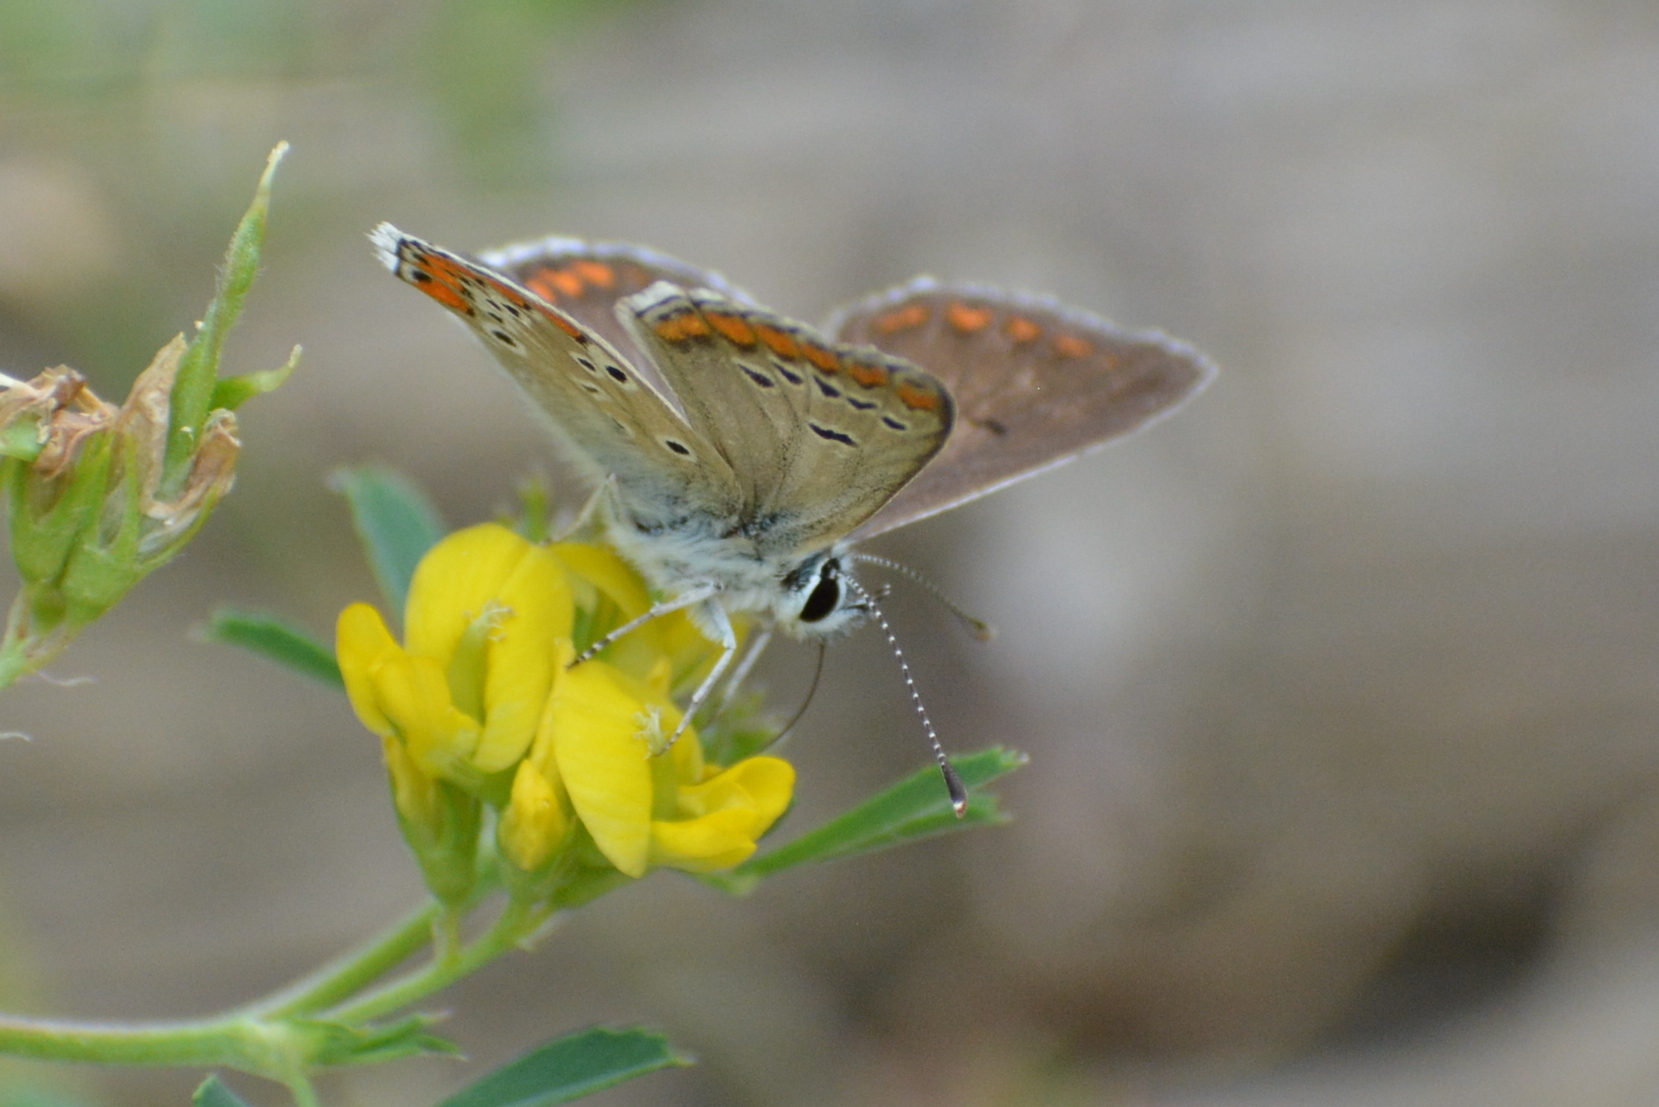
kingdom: Animalia
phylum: Arthropoda
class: Insecta
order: Lepidoptera
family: Lycaenidae
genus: Aricia
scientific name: Aricia agestis
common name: Brown argus
